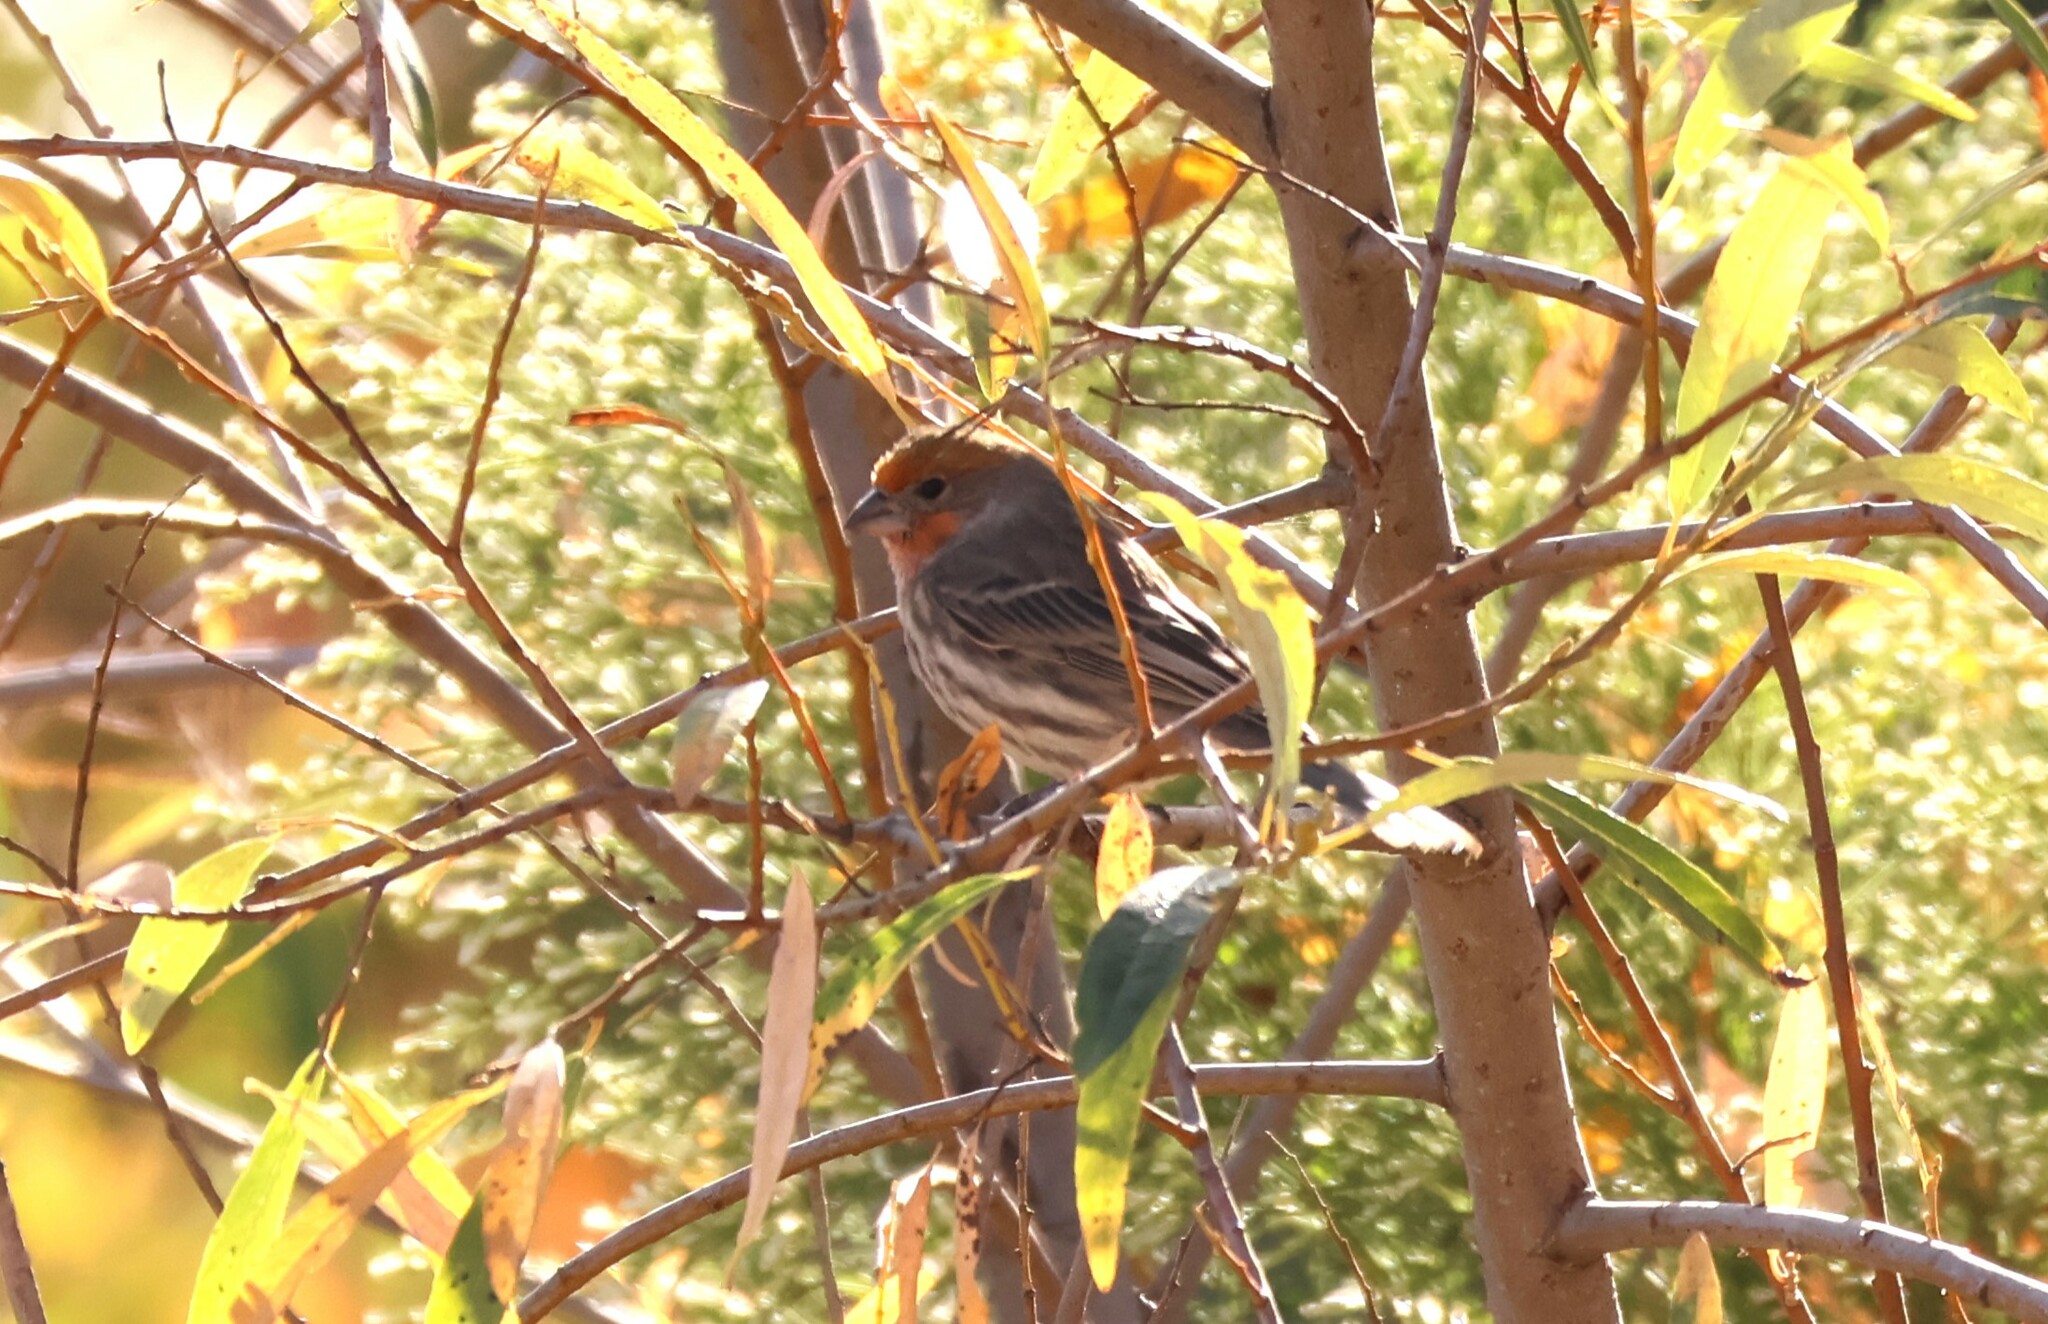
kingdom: Animalia
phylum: Chordata
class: Aves
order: Passeriformes
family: Fringillidae
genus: Haemorhous
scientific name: Haemorhous mexicanus
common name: House finch
